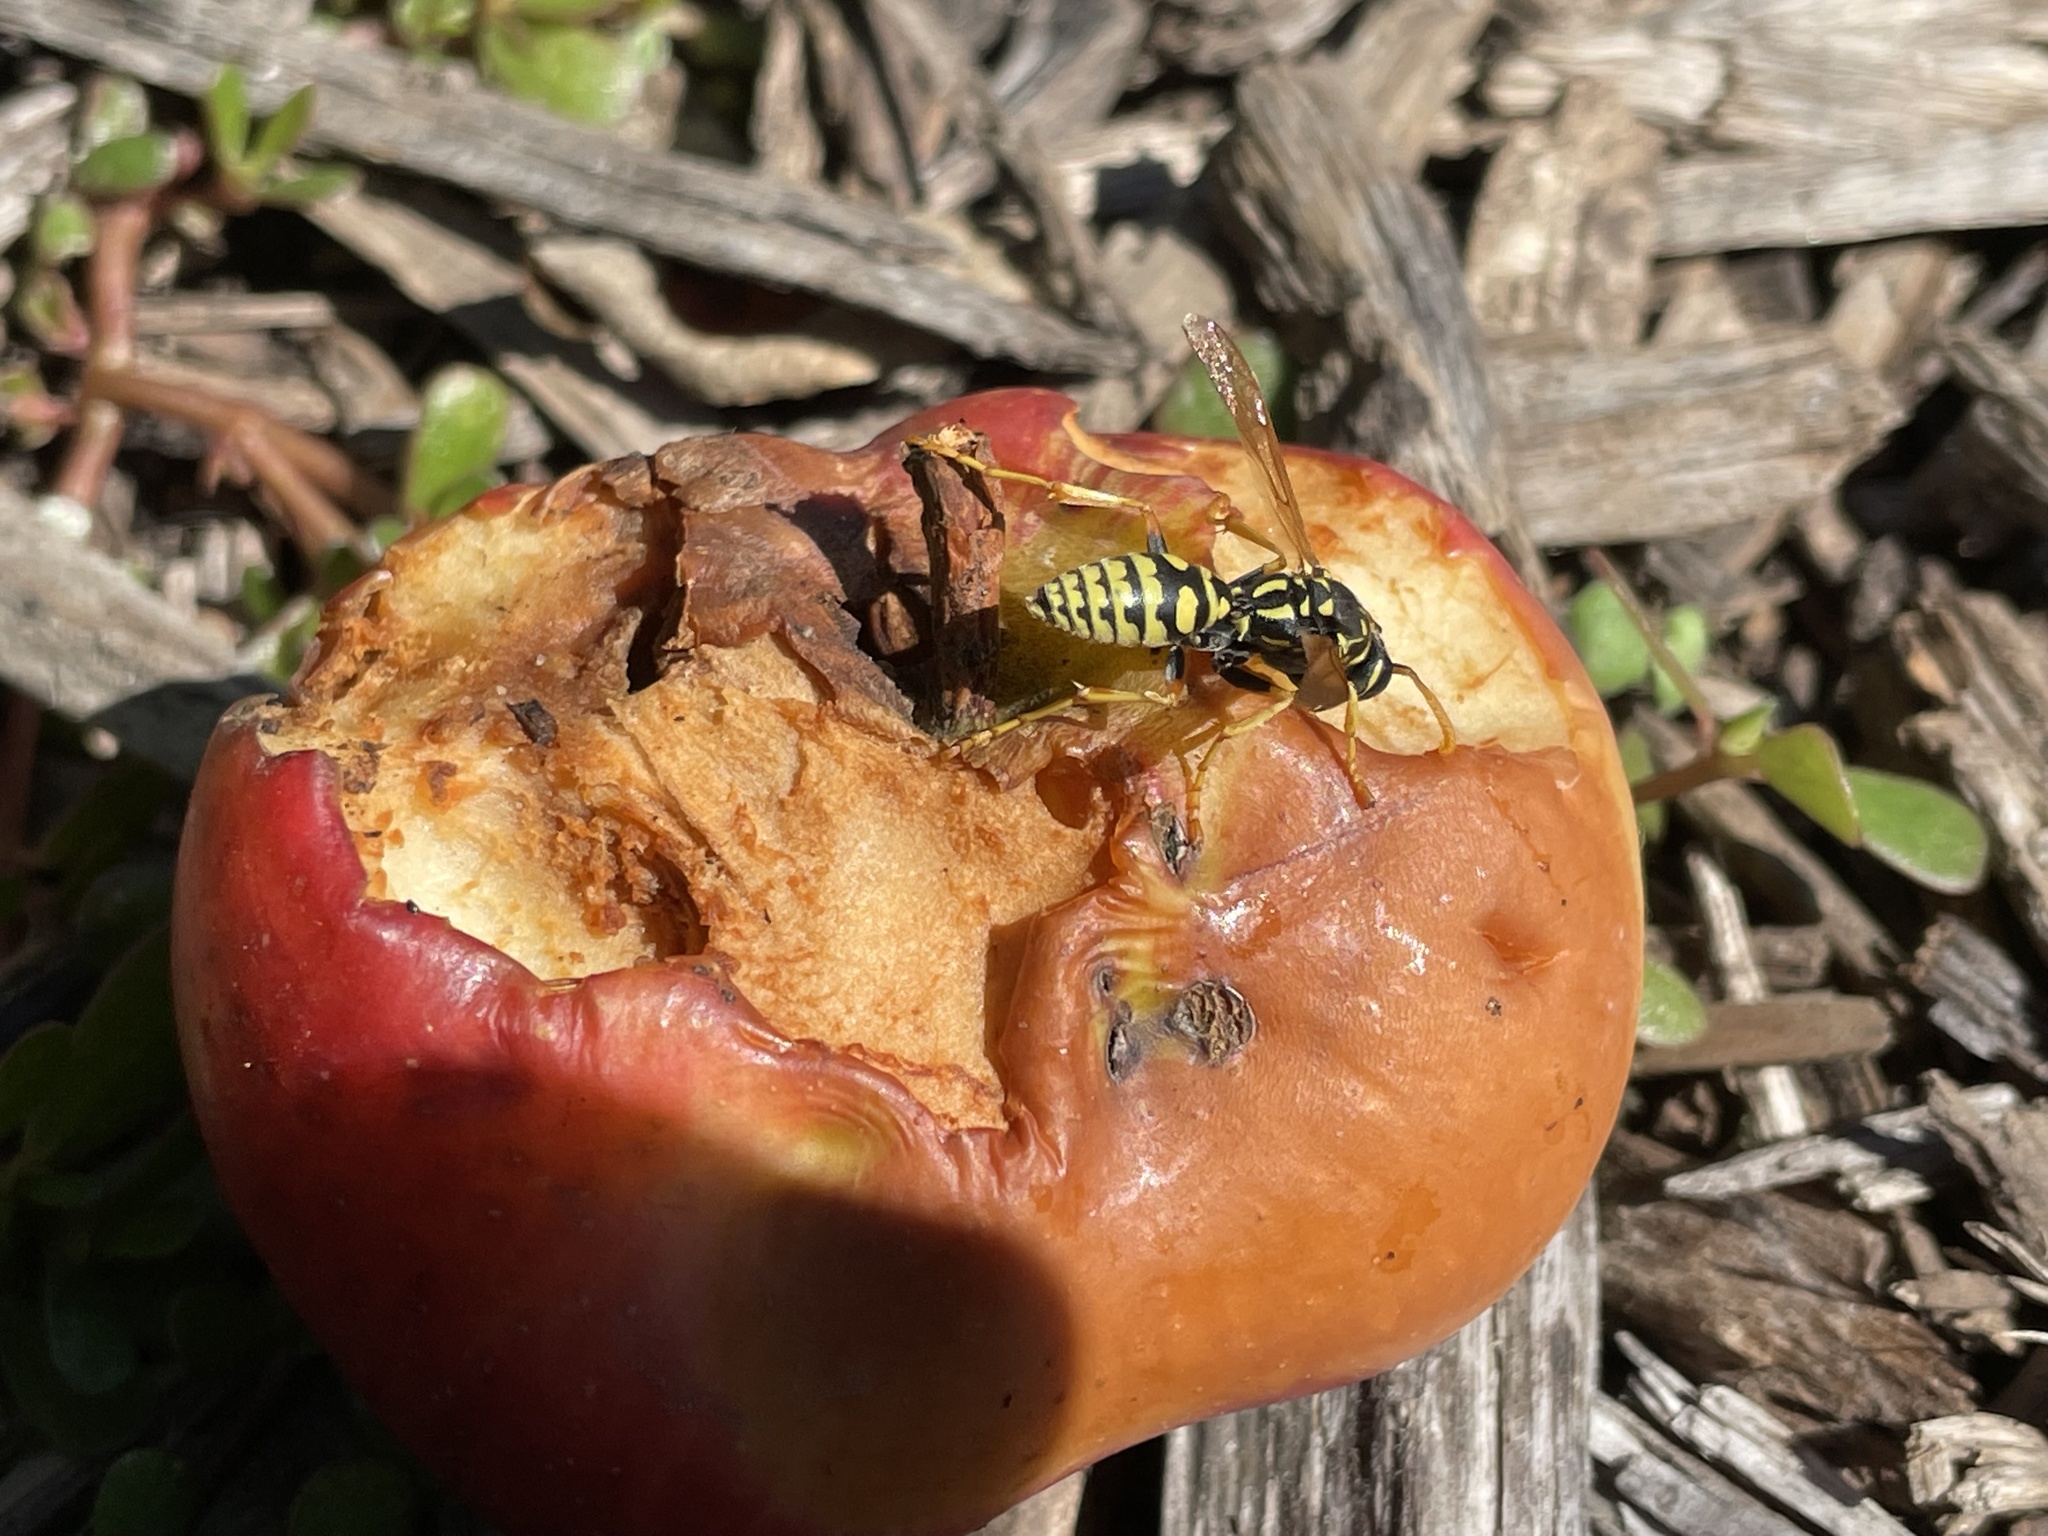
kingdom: Animalia
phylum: Arthropoda
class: Insecta
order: Hymenoptera
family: Eumenidae
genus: Polistes
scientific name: Polistes dominula
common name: Paper wasp
